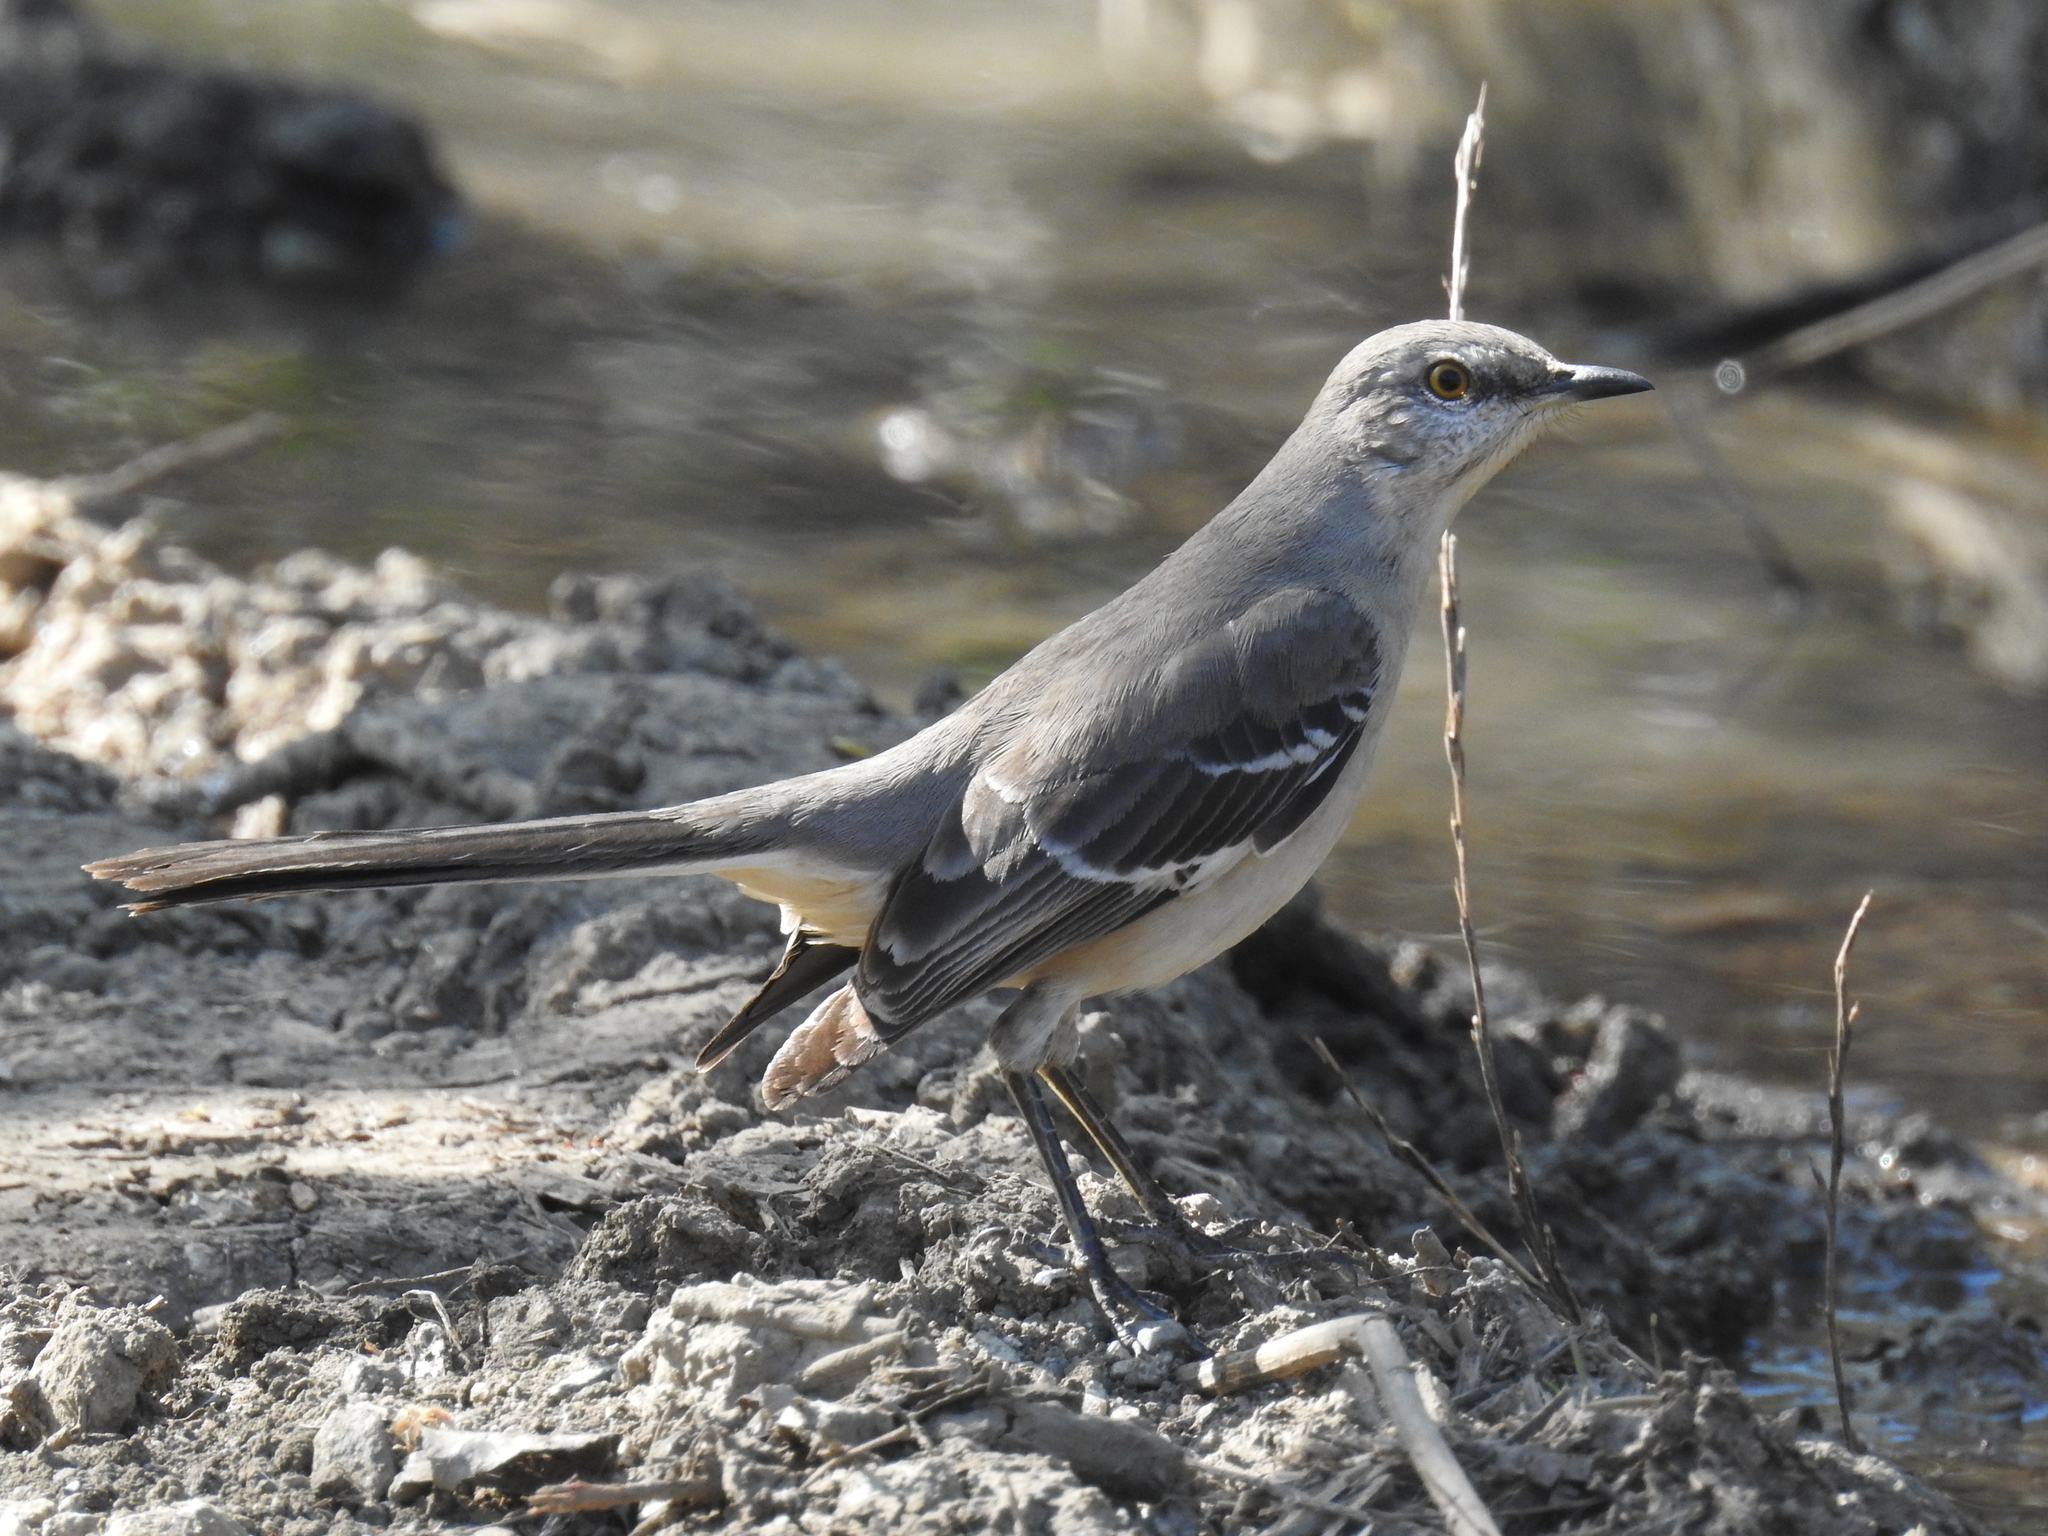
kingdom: Animalia
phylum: Chordata
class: Aves
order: Passeriformes
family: Mimidae
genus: Mimus
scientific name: Mimus polyglottos
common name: Northern mockingbird
